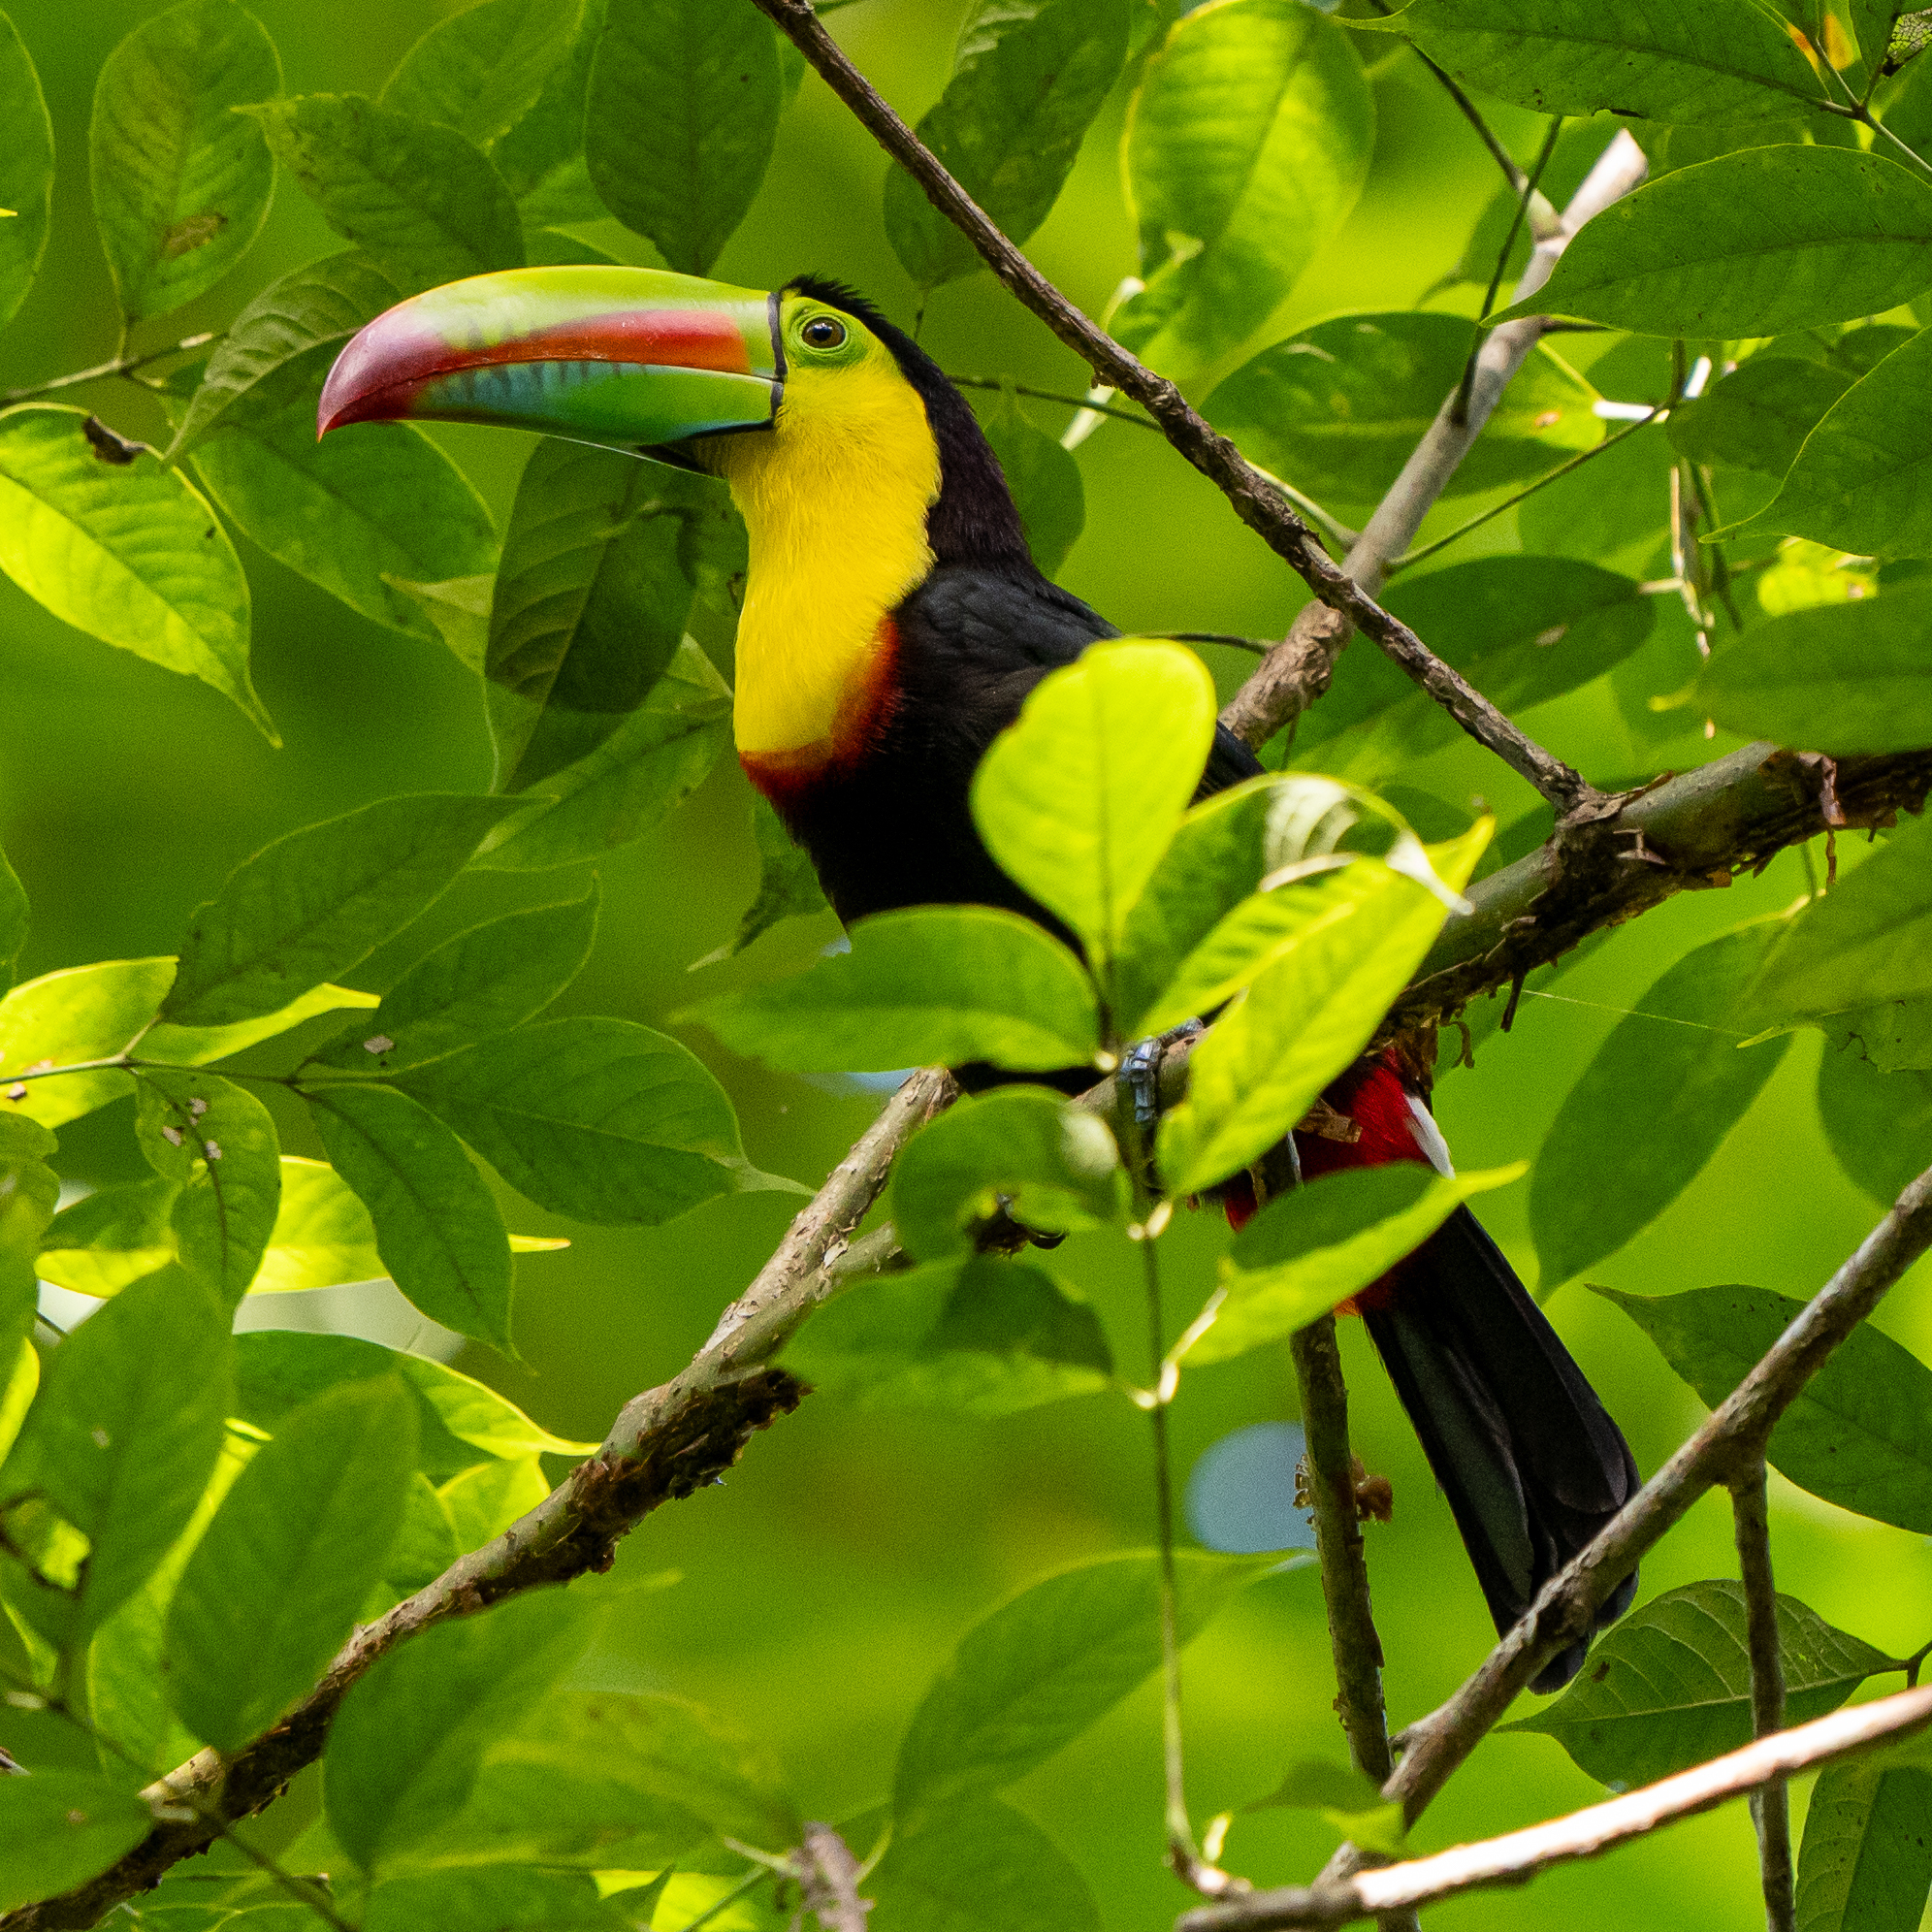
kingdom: Animalia
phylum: Chordata
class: Aves
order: Piciformes
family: Ramphastidae
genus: Ramphastos
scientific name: Ramphastos sulfuratus
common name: Keel-billed toucan
